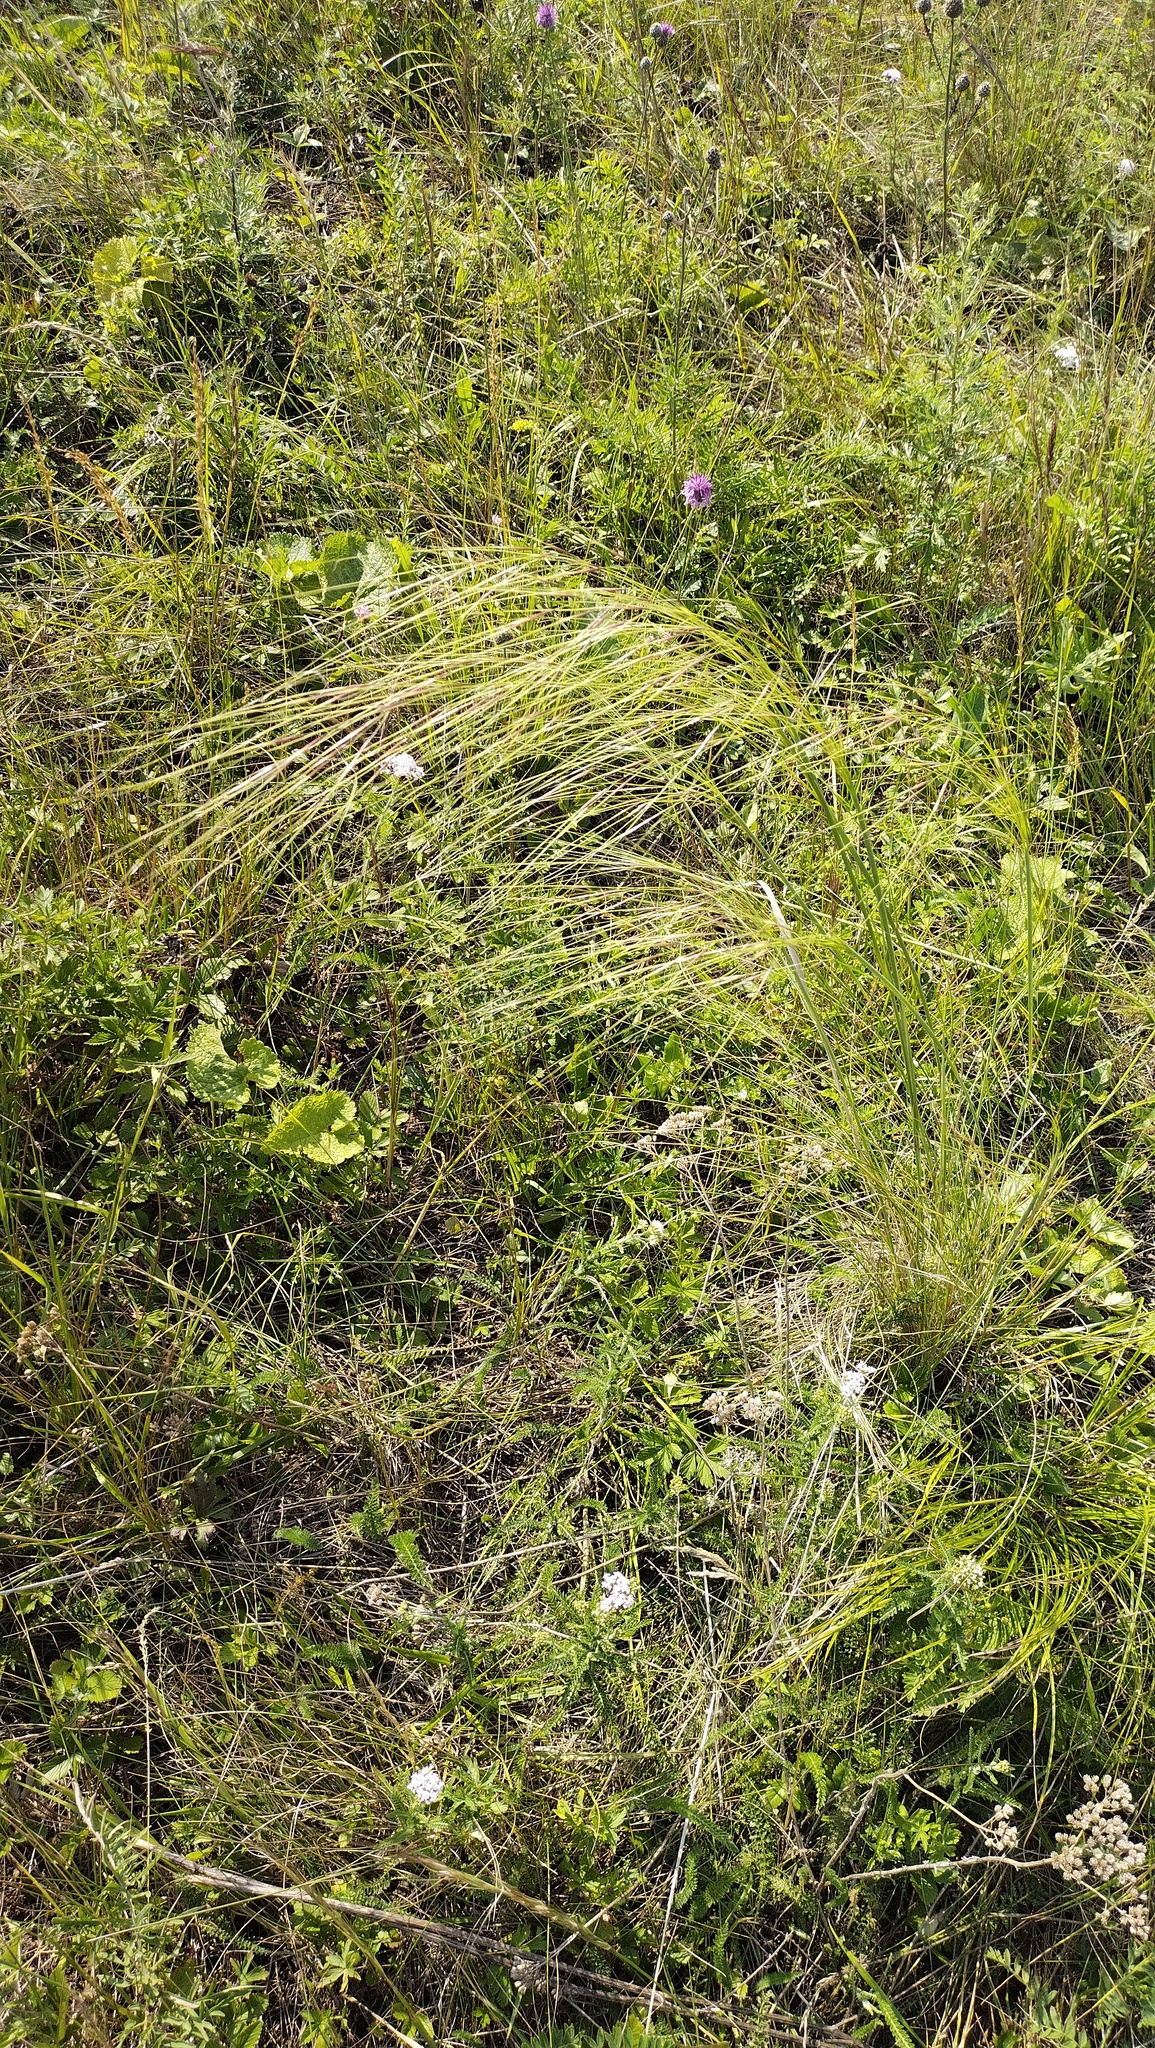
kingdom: Plantae
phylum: Tracheophyta
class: Liliopsida
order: Poales
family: Poaceae
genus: Stipa
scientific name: Stipa capillata
